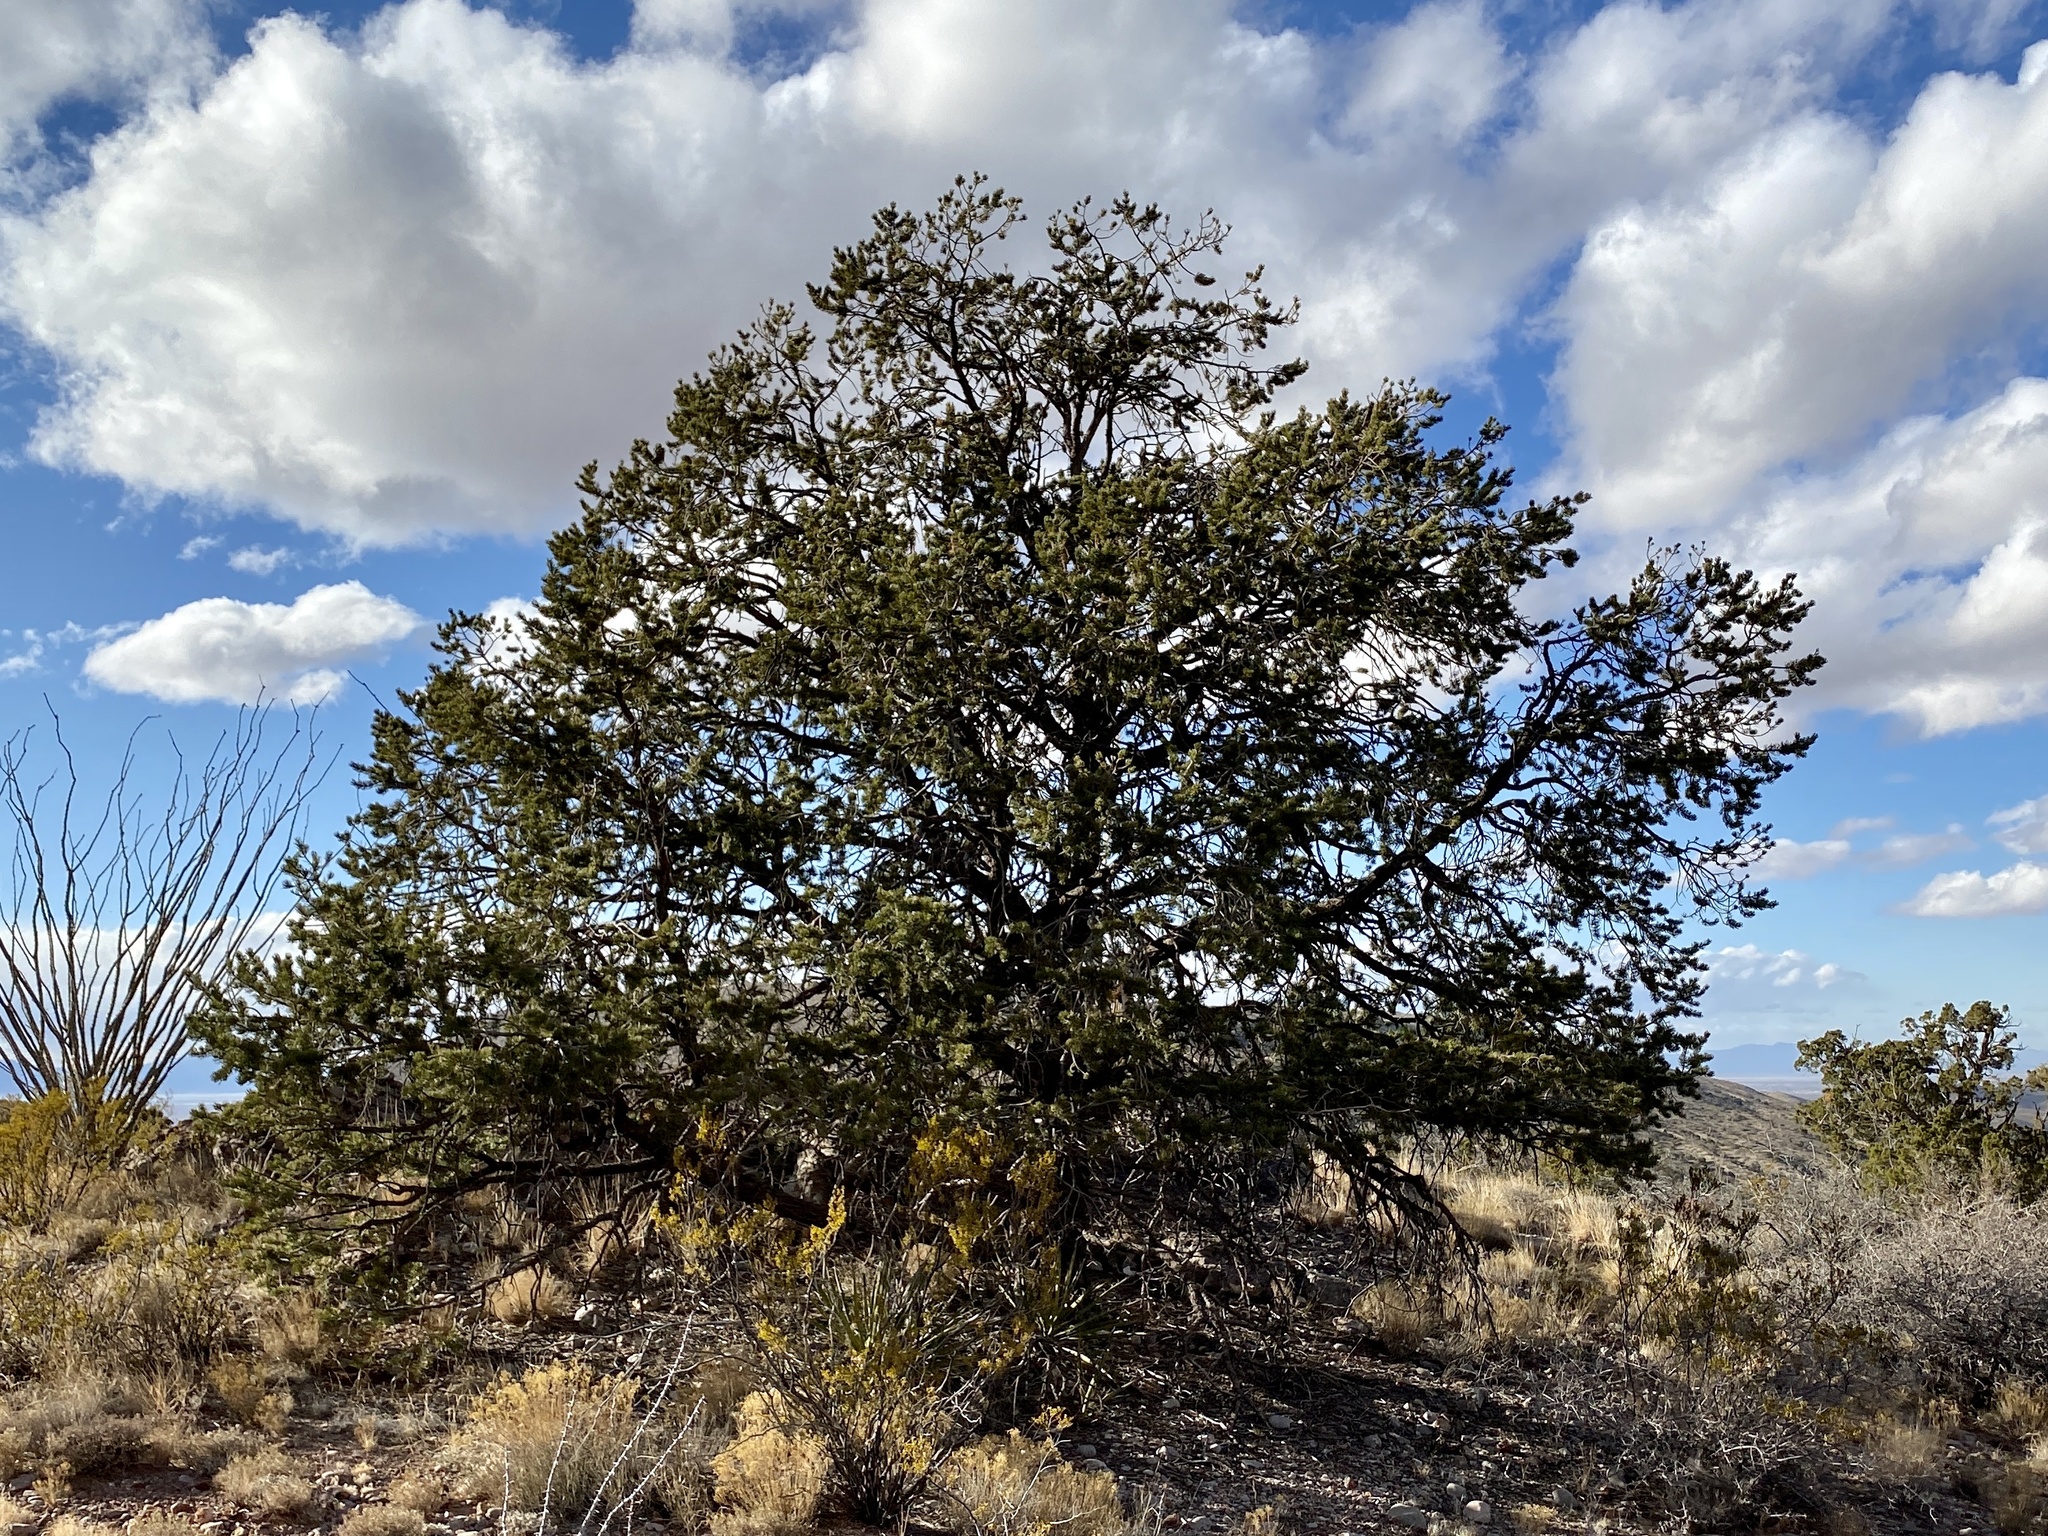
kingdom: Plantae
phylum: Tracheophyta
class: Pinopsida
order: Pinales
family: Pinaceae
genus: Pinus
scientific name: Pinus edulis
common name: Colorado pinyon
